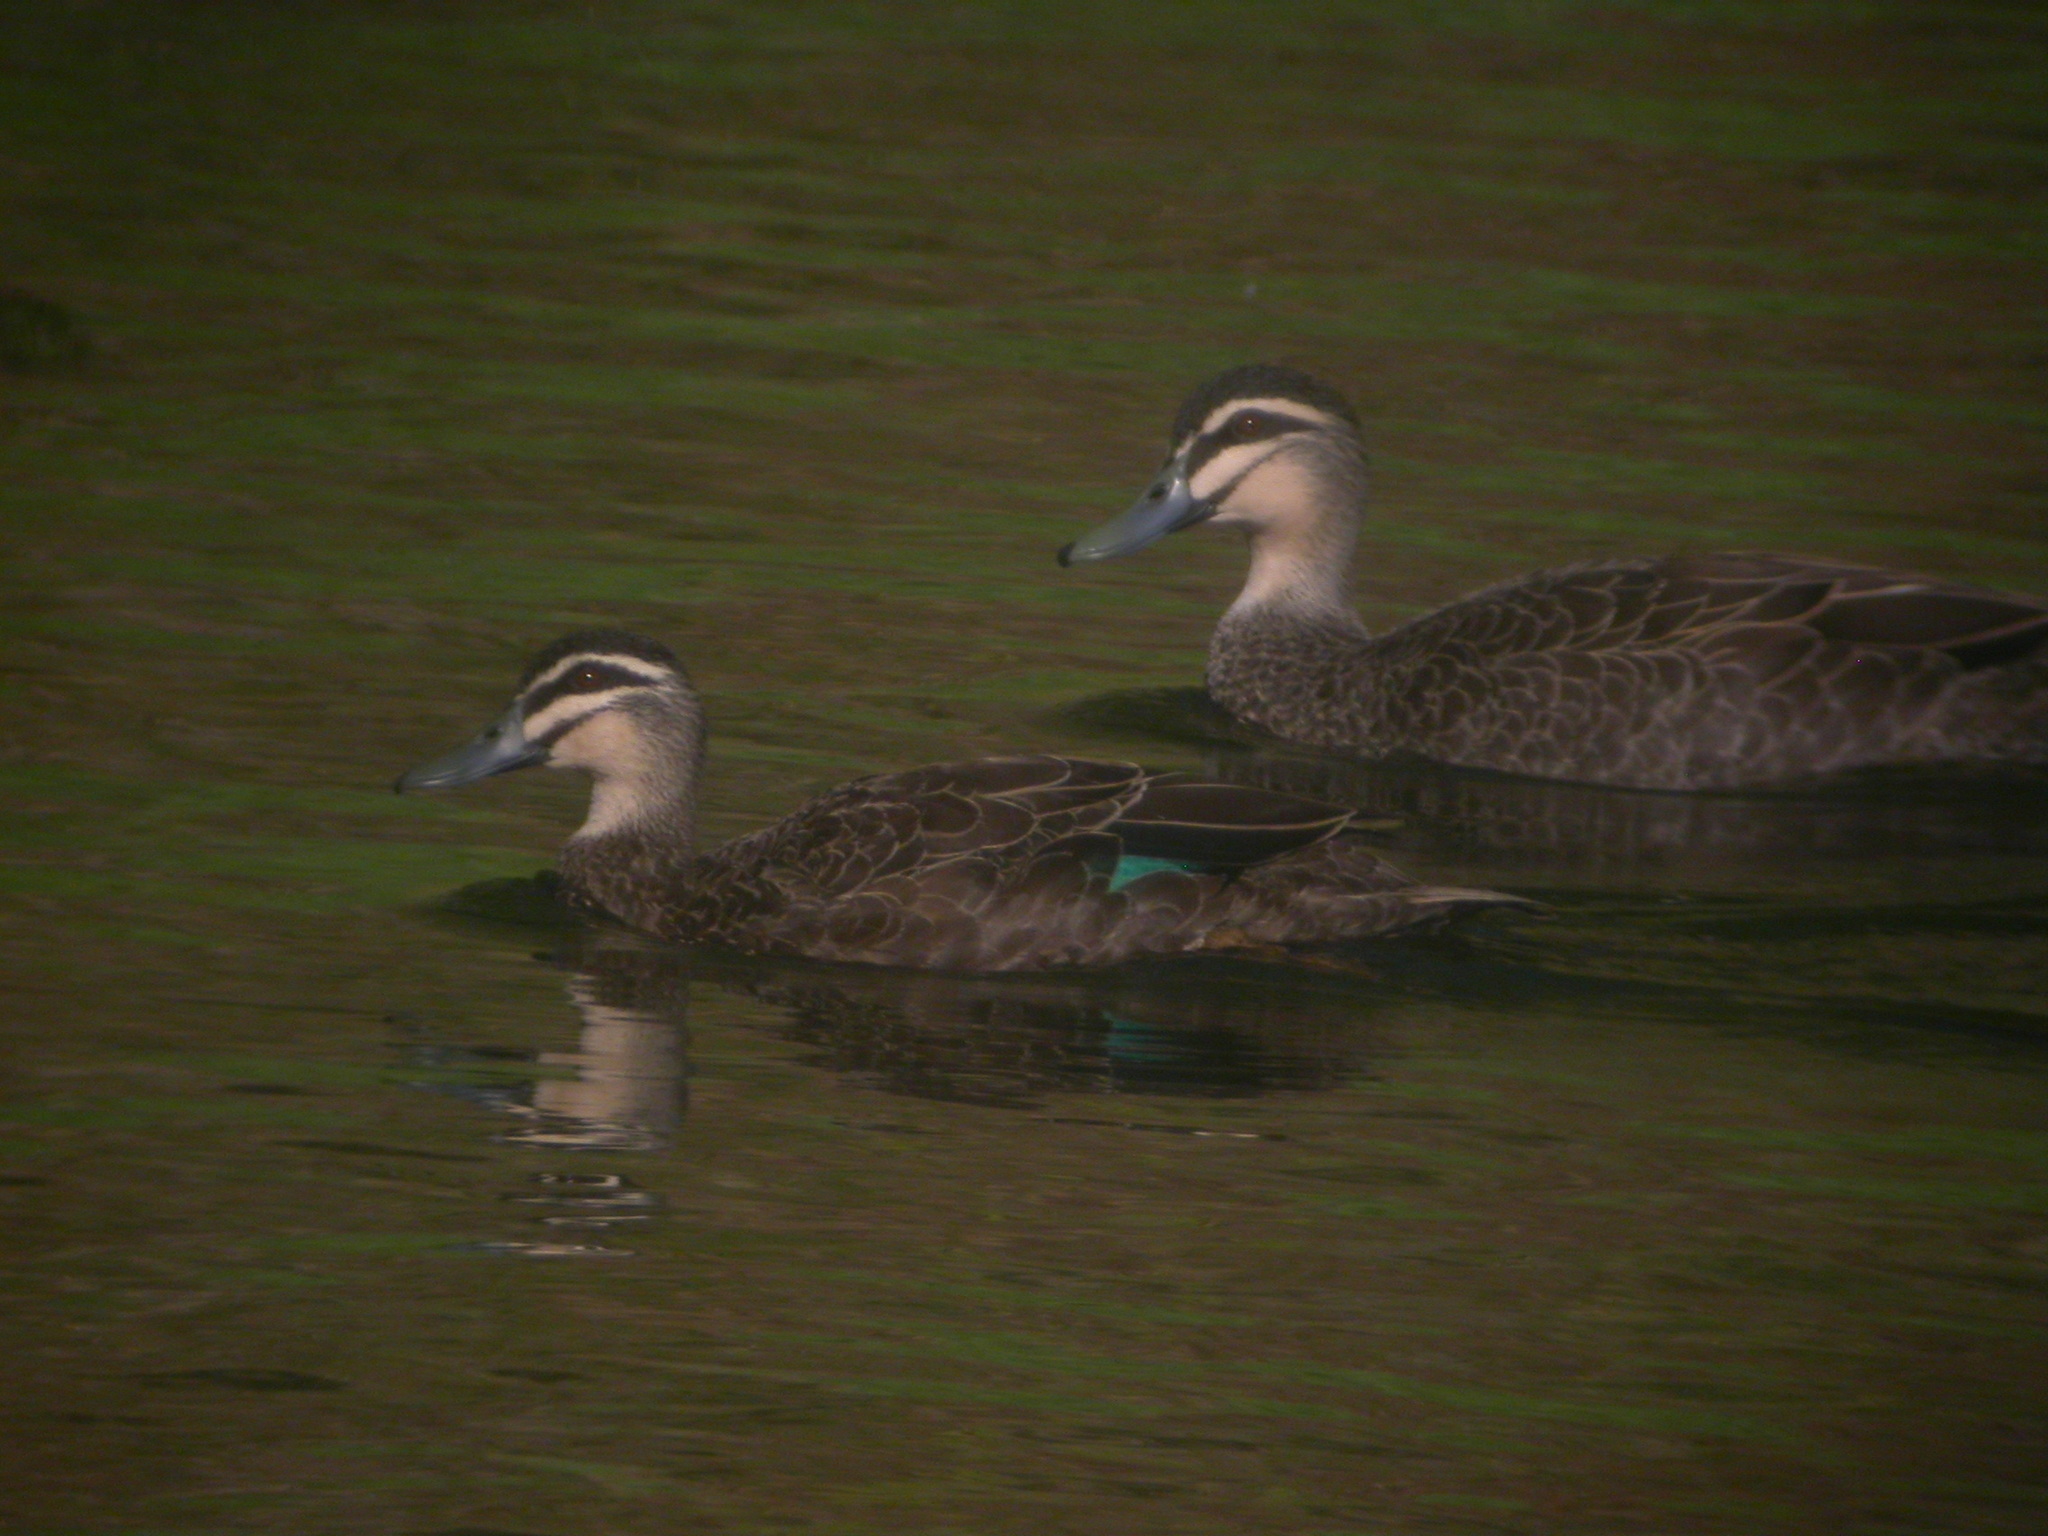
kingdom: Animalia
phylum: Chordata
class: Aves
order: Anseriformes
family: Anatidae
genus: Anas
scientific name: Anas superciliosa
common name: Pacific black duck
